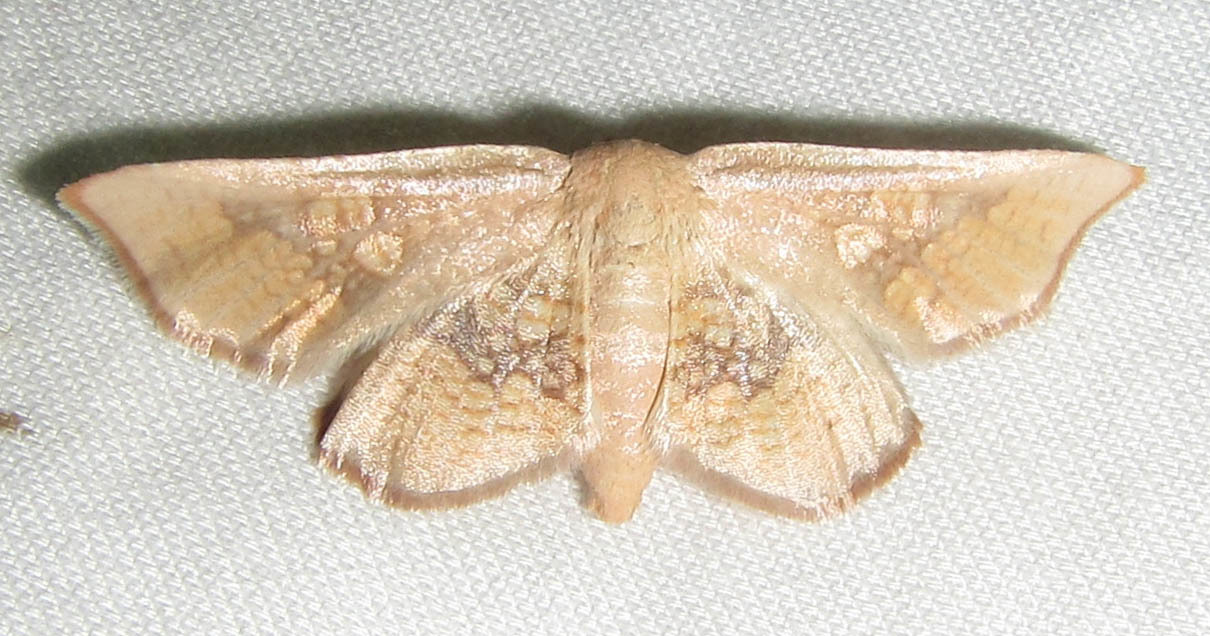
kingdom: Animalia
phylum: Arthropoda
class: Insecta
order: Lepidoptera
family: Thyrididae
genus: Cecidothyris
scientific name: Cecidothyris pexa
